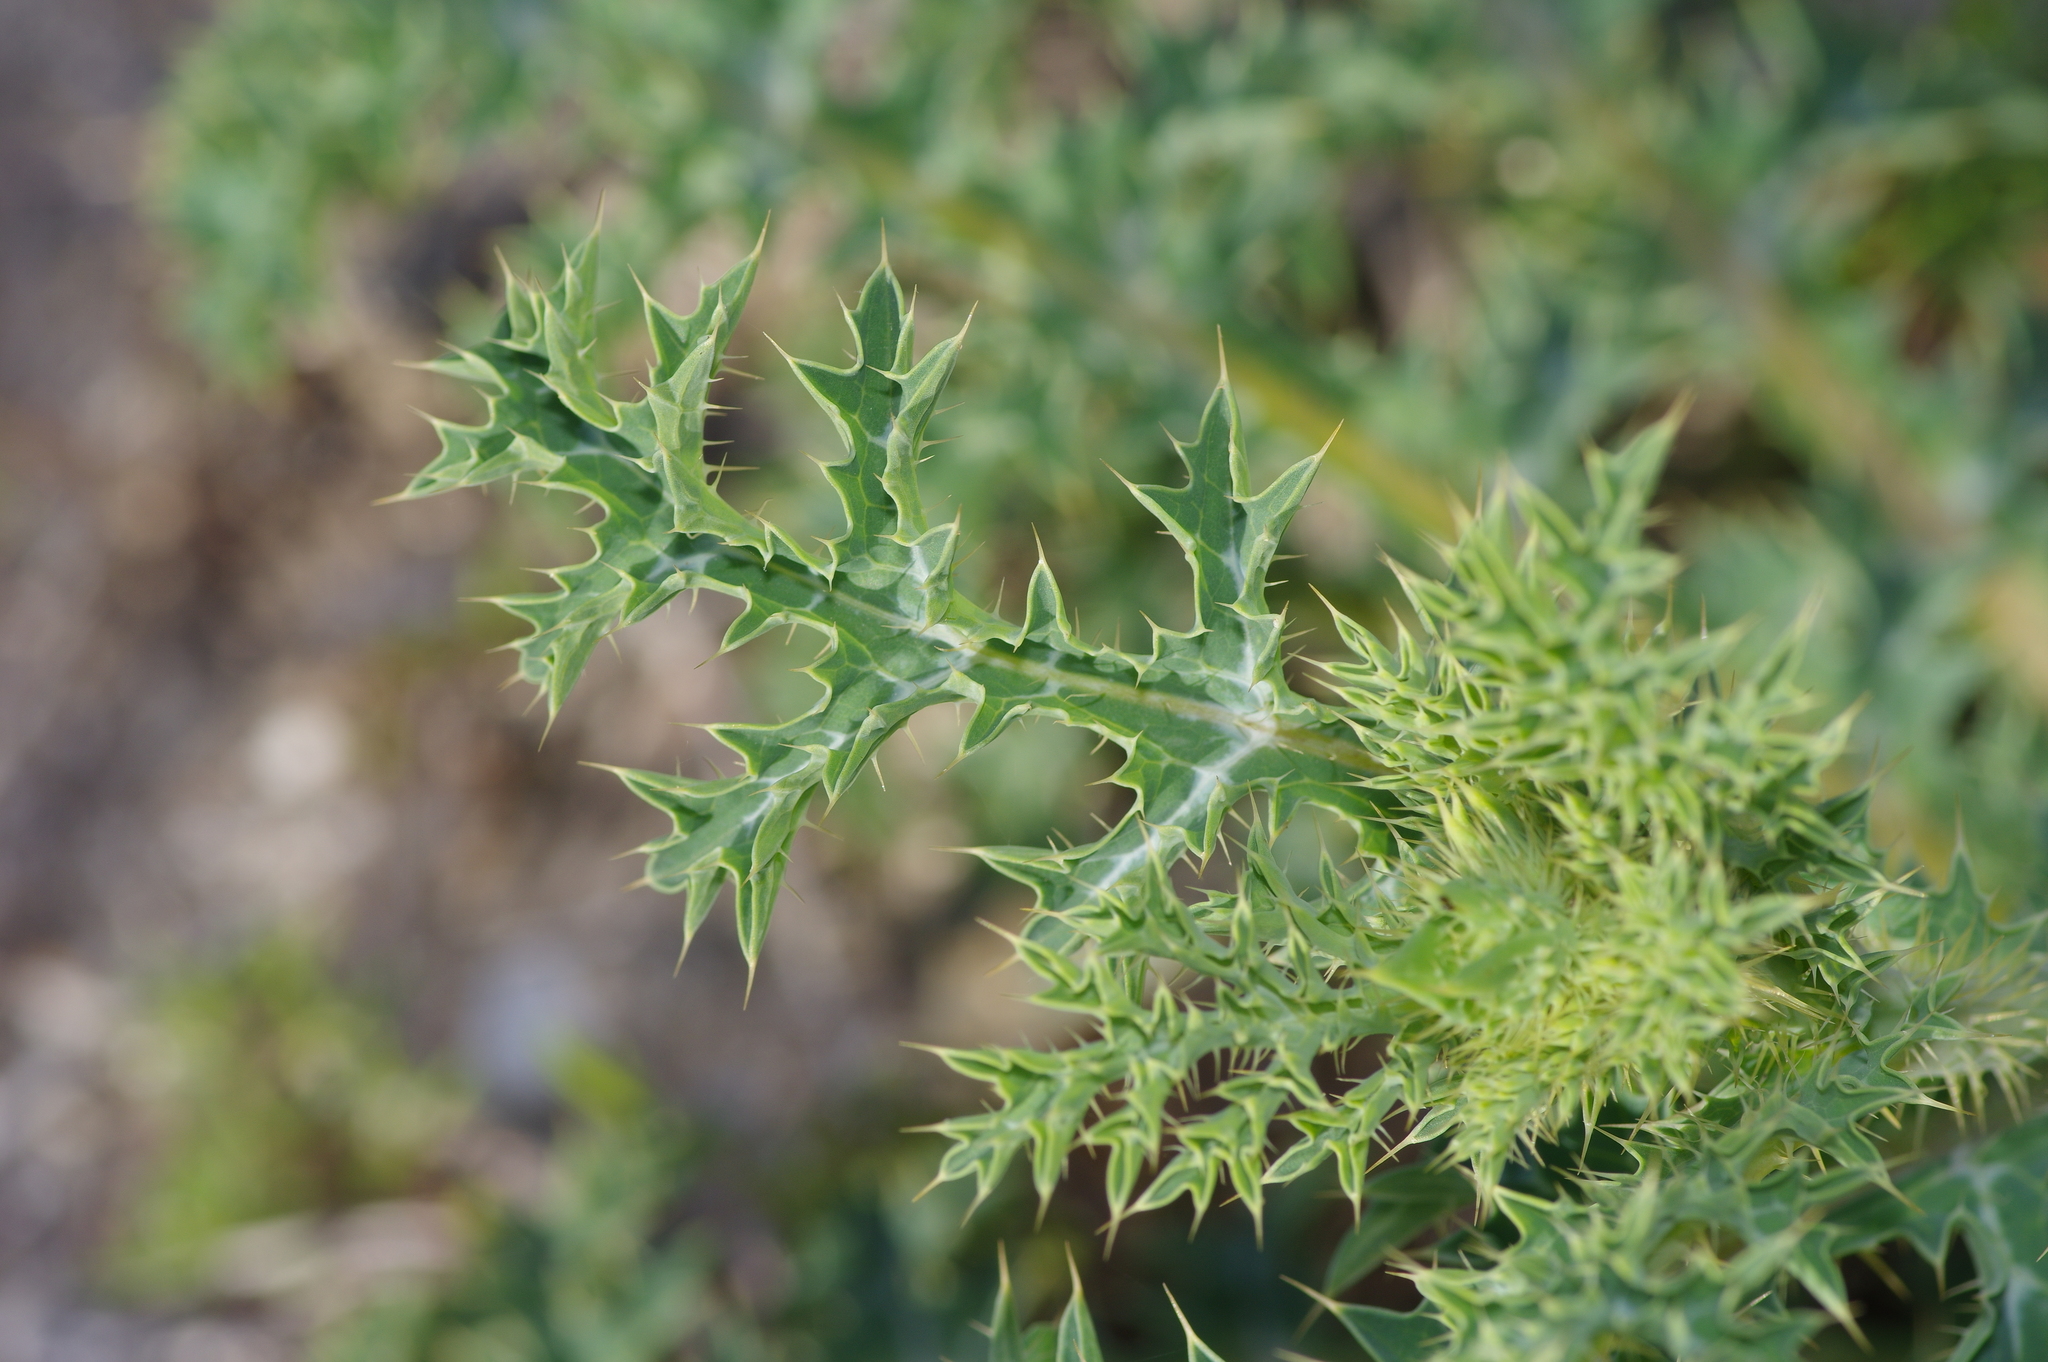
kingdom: Plantae
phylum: Tracheophyta
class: Magnoliopsida
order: Ranunculales
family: Papaveraceae
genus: Argemone
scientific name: Argemone albiflora
